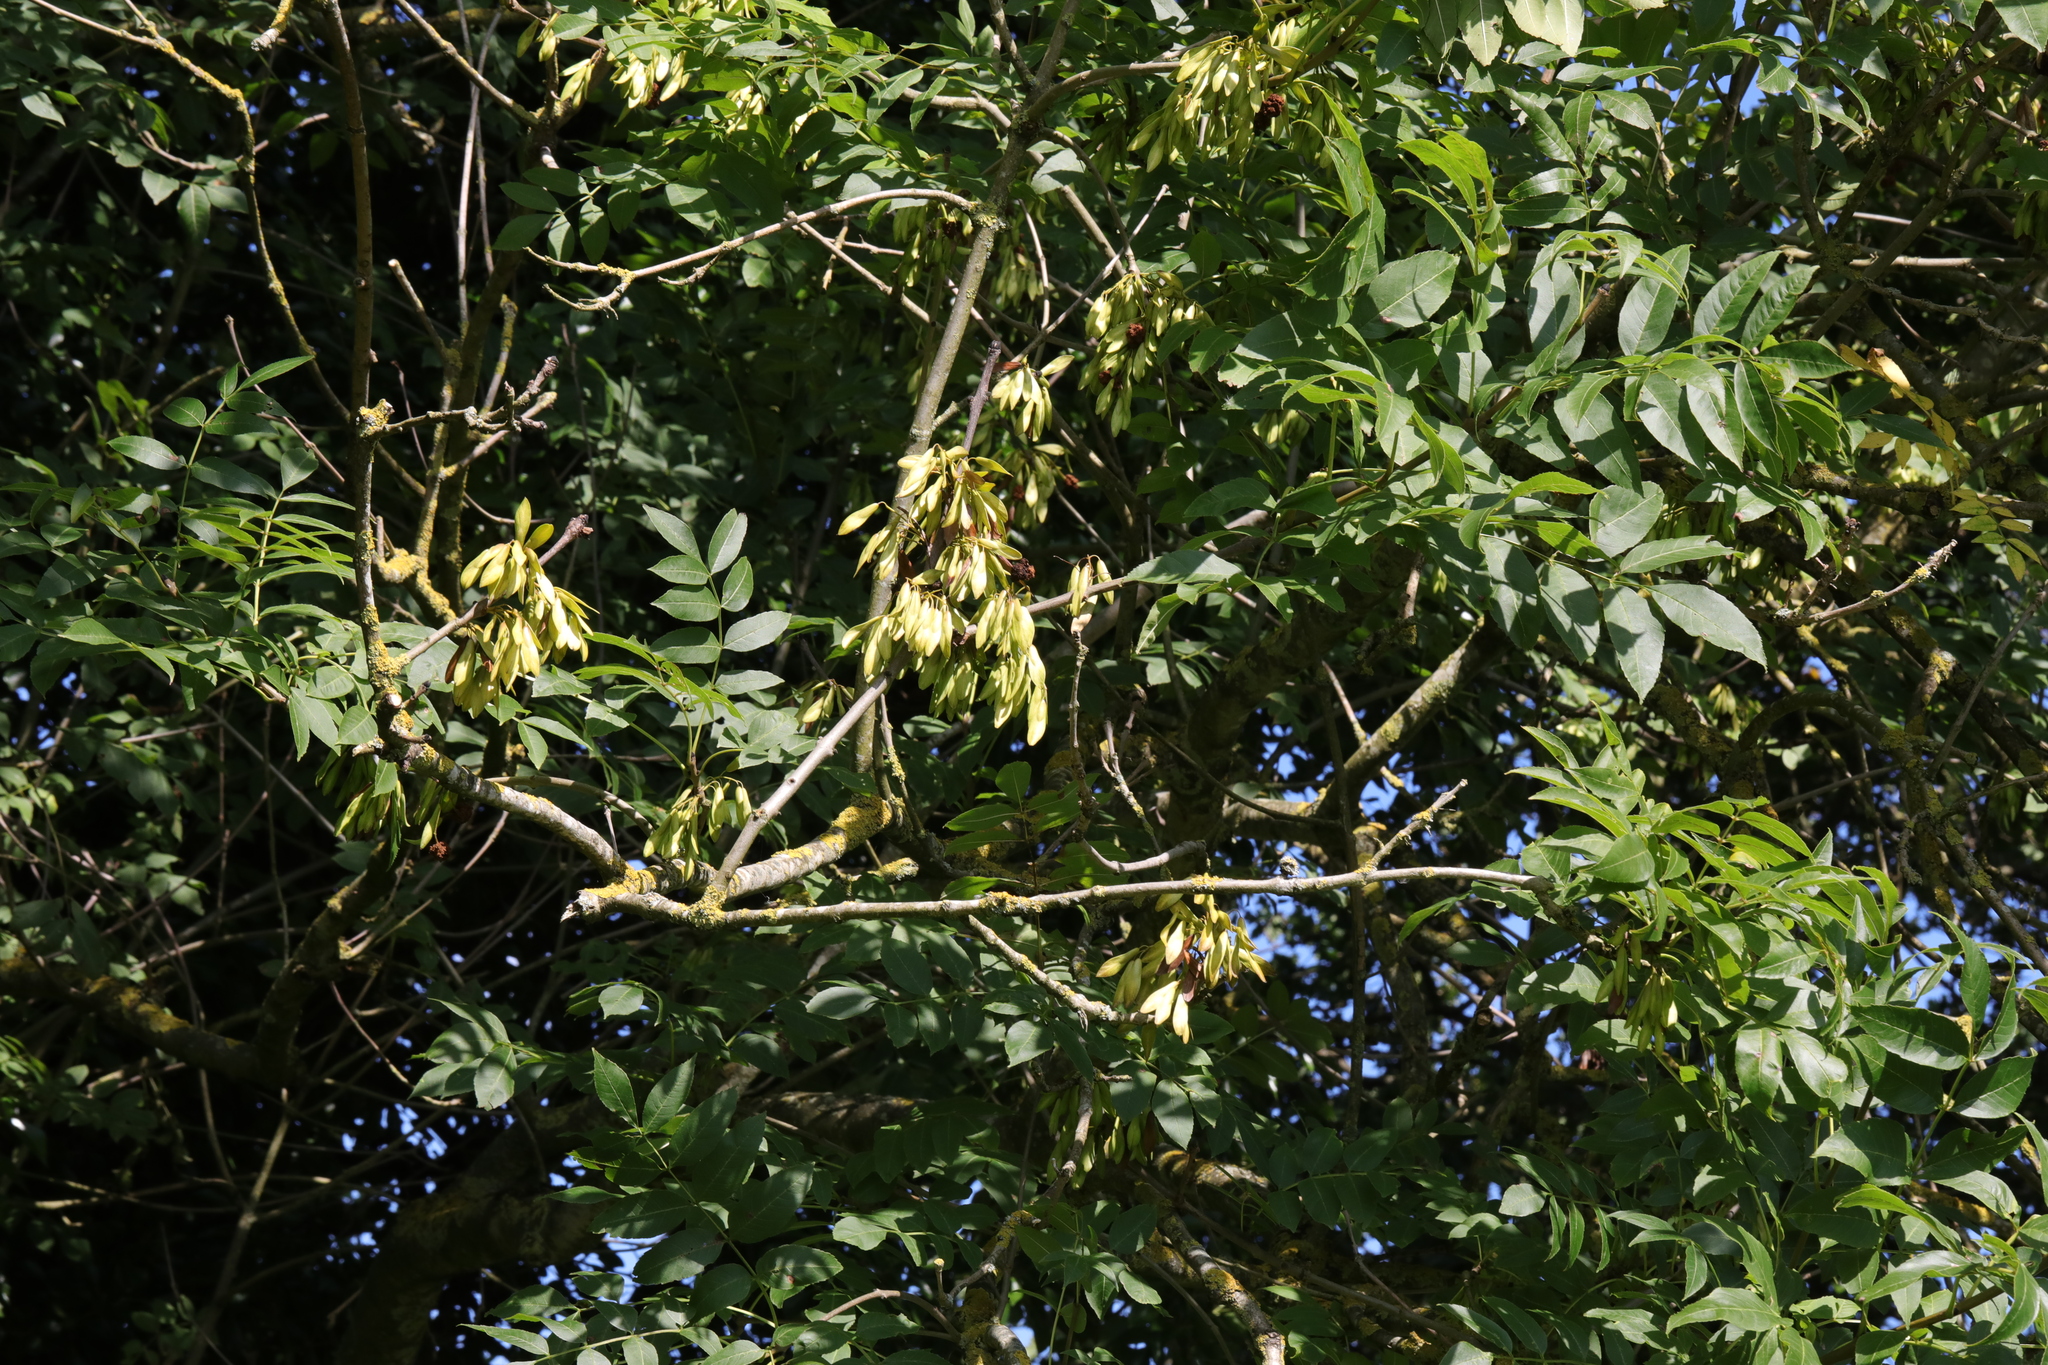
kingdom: Plantae
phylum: Tracheophyta
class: Magnoliopsida
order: Lamiales
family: Oleaceae
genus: Fraxinus
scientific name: Fraxinus excelsior
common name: European ash
